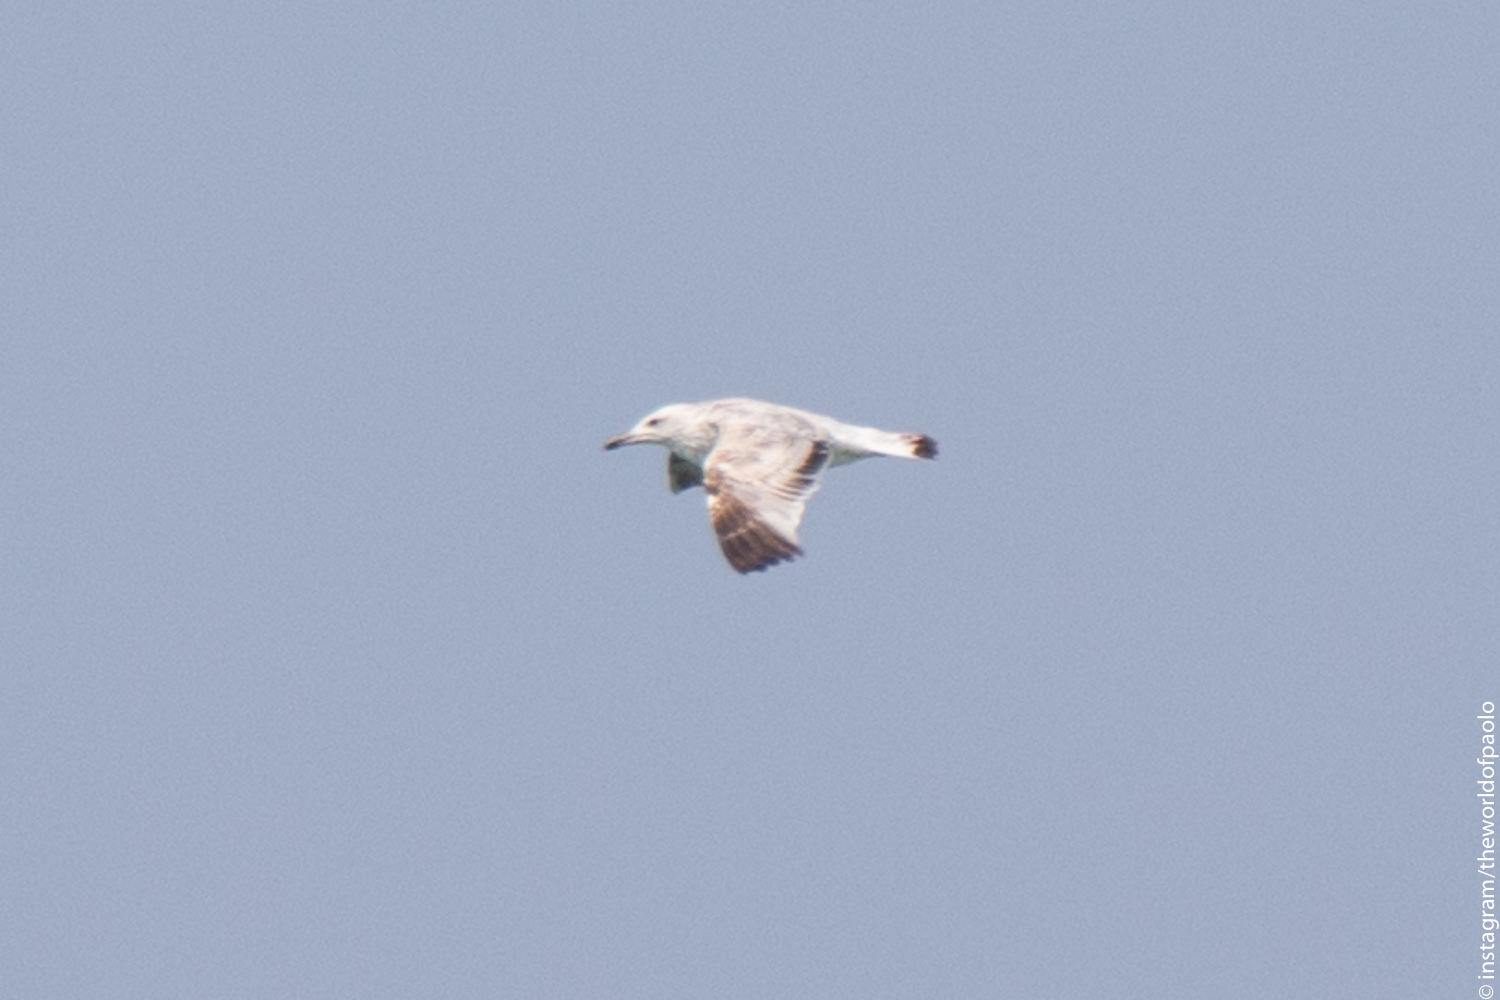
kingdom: Animalia
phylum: Chordata
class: Aves
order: Charadriiformes
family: Laridae
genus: Larus
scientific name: Larus cachinnans
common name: Caspian gull
